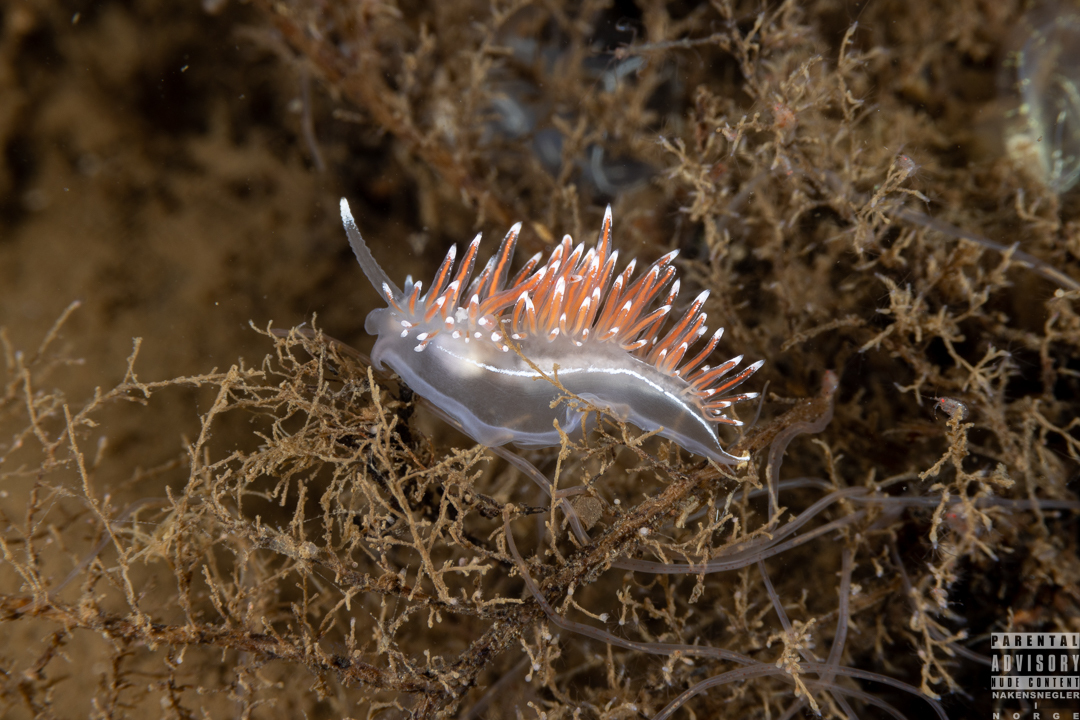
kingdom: Animalia
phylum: Mollusca
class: Gastropoda
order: Nudibranchia
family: Coryphellidae
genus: Coryphella
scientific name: Coryphella lineata
